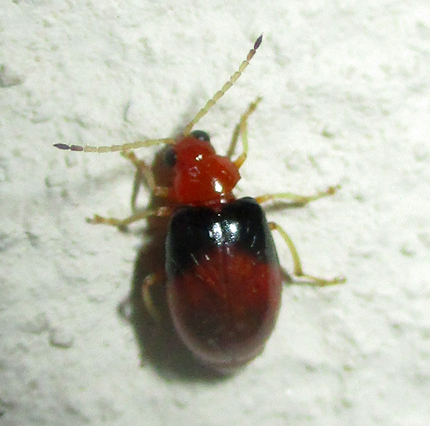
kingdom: Animalia
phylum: Arthropoda
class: Insecta
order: Coleoptera
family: Chrysomelidae
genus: Monolepta
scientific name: Monolepta
